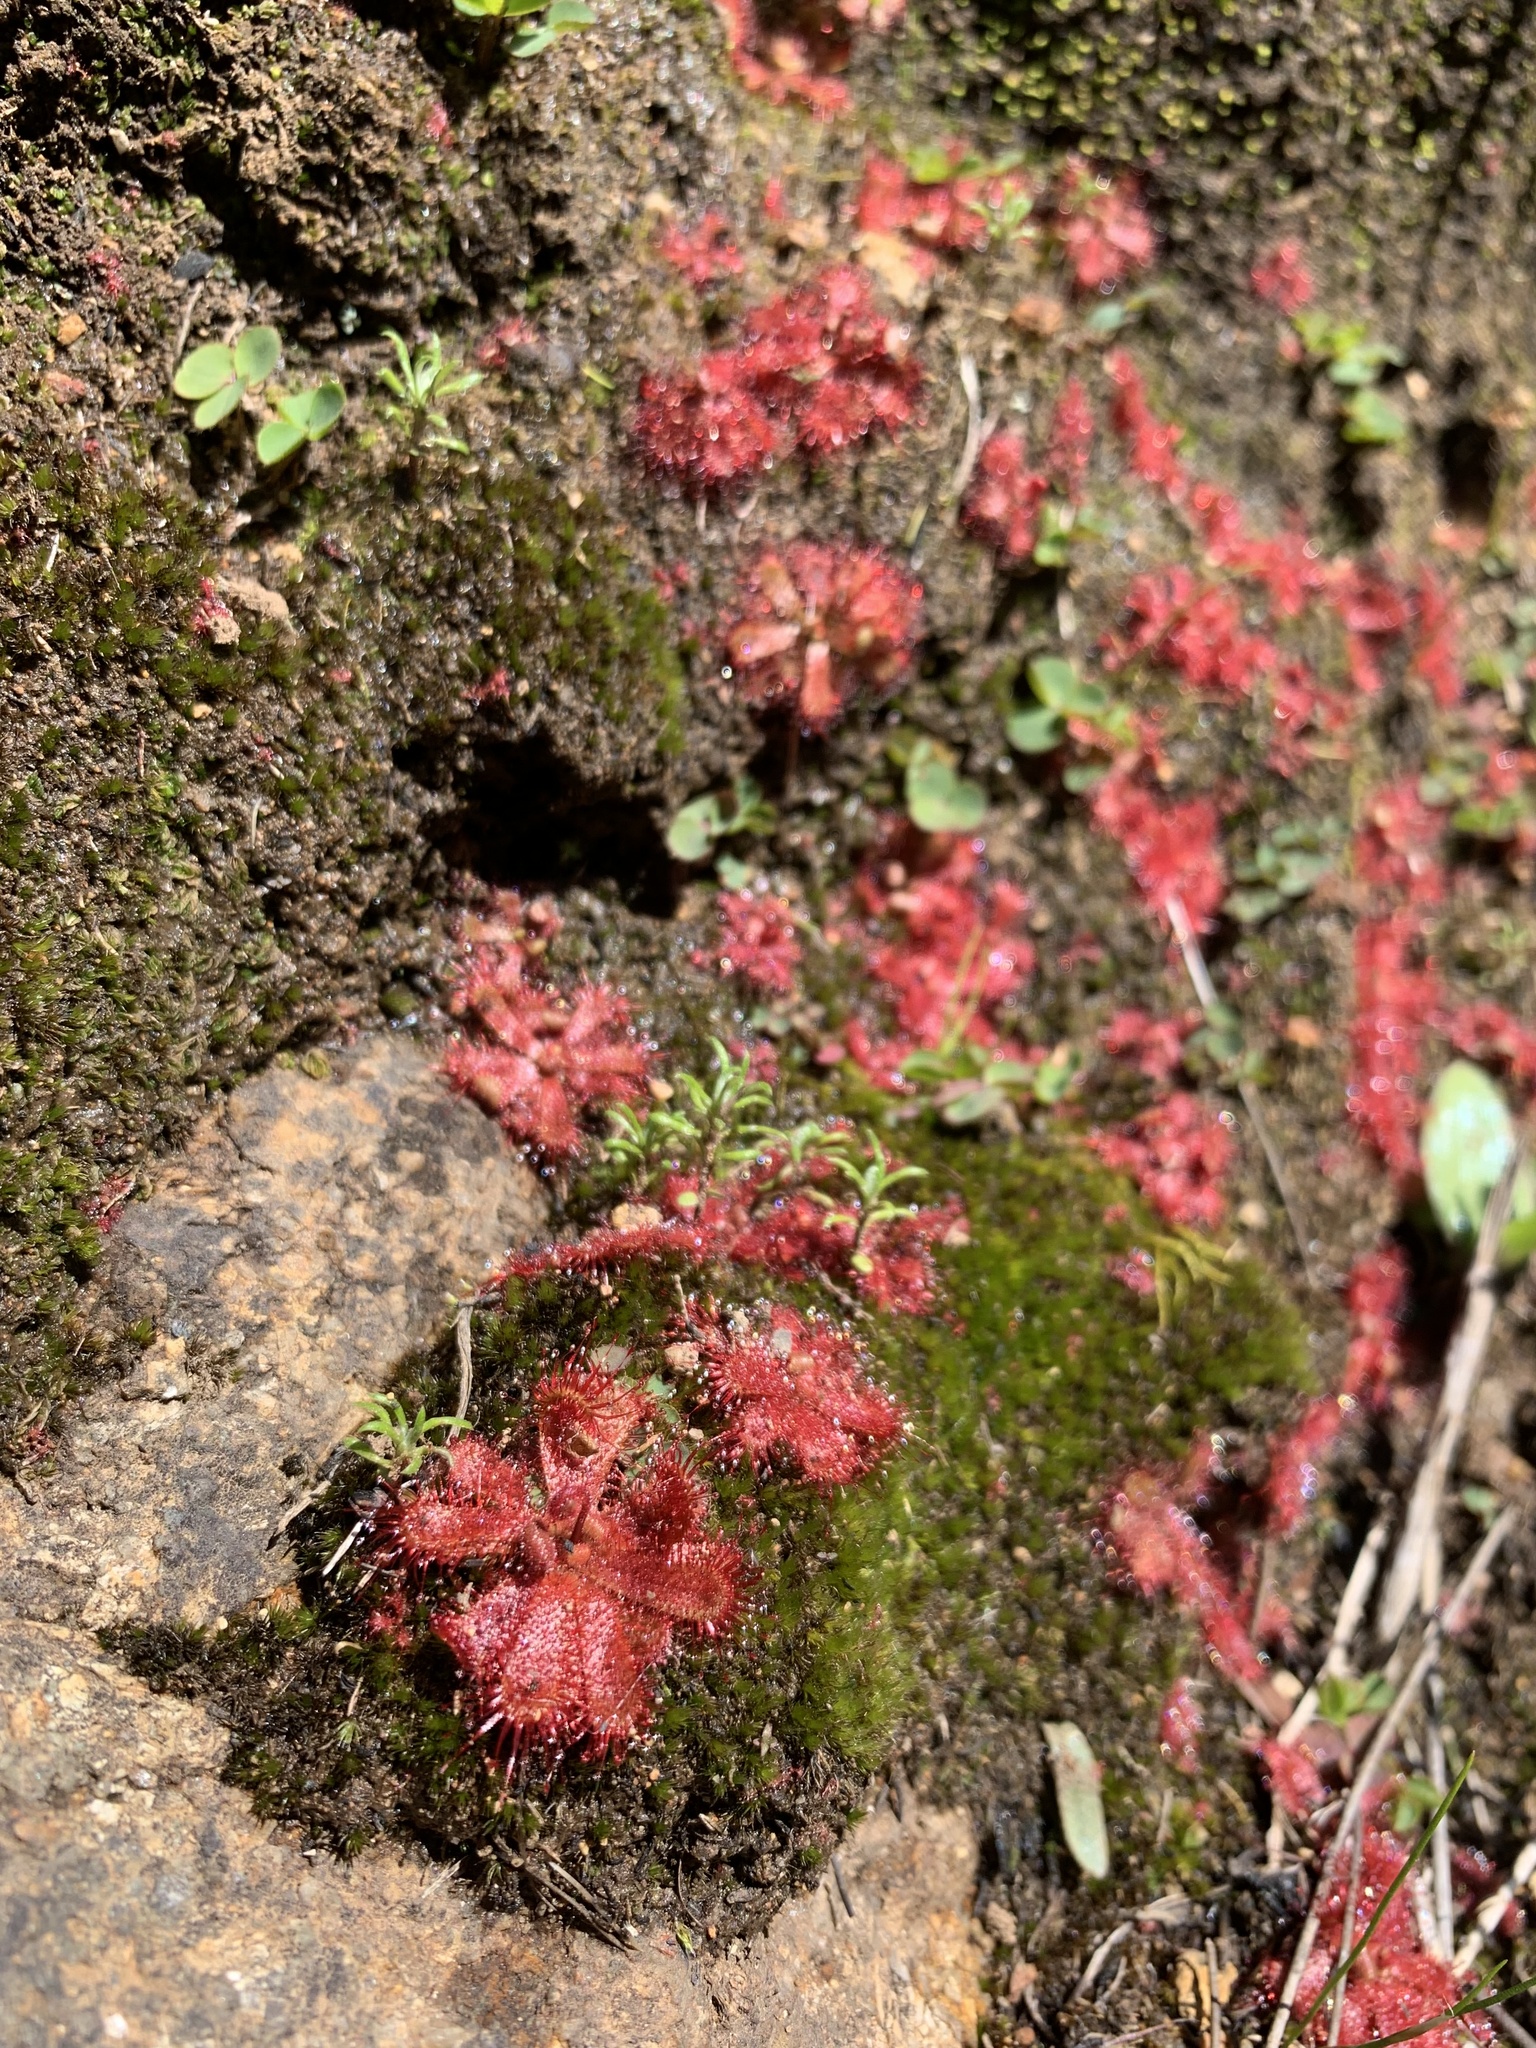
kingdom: Plantae
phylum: Tracheophyta
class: Magnoliopsida
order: Caryophyllales
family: Droseraceae
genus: Drosera
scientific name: Drosera trinervia
